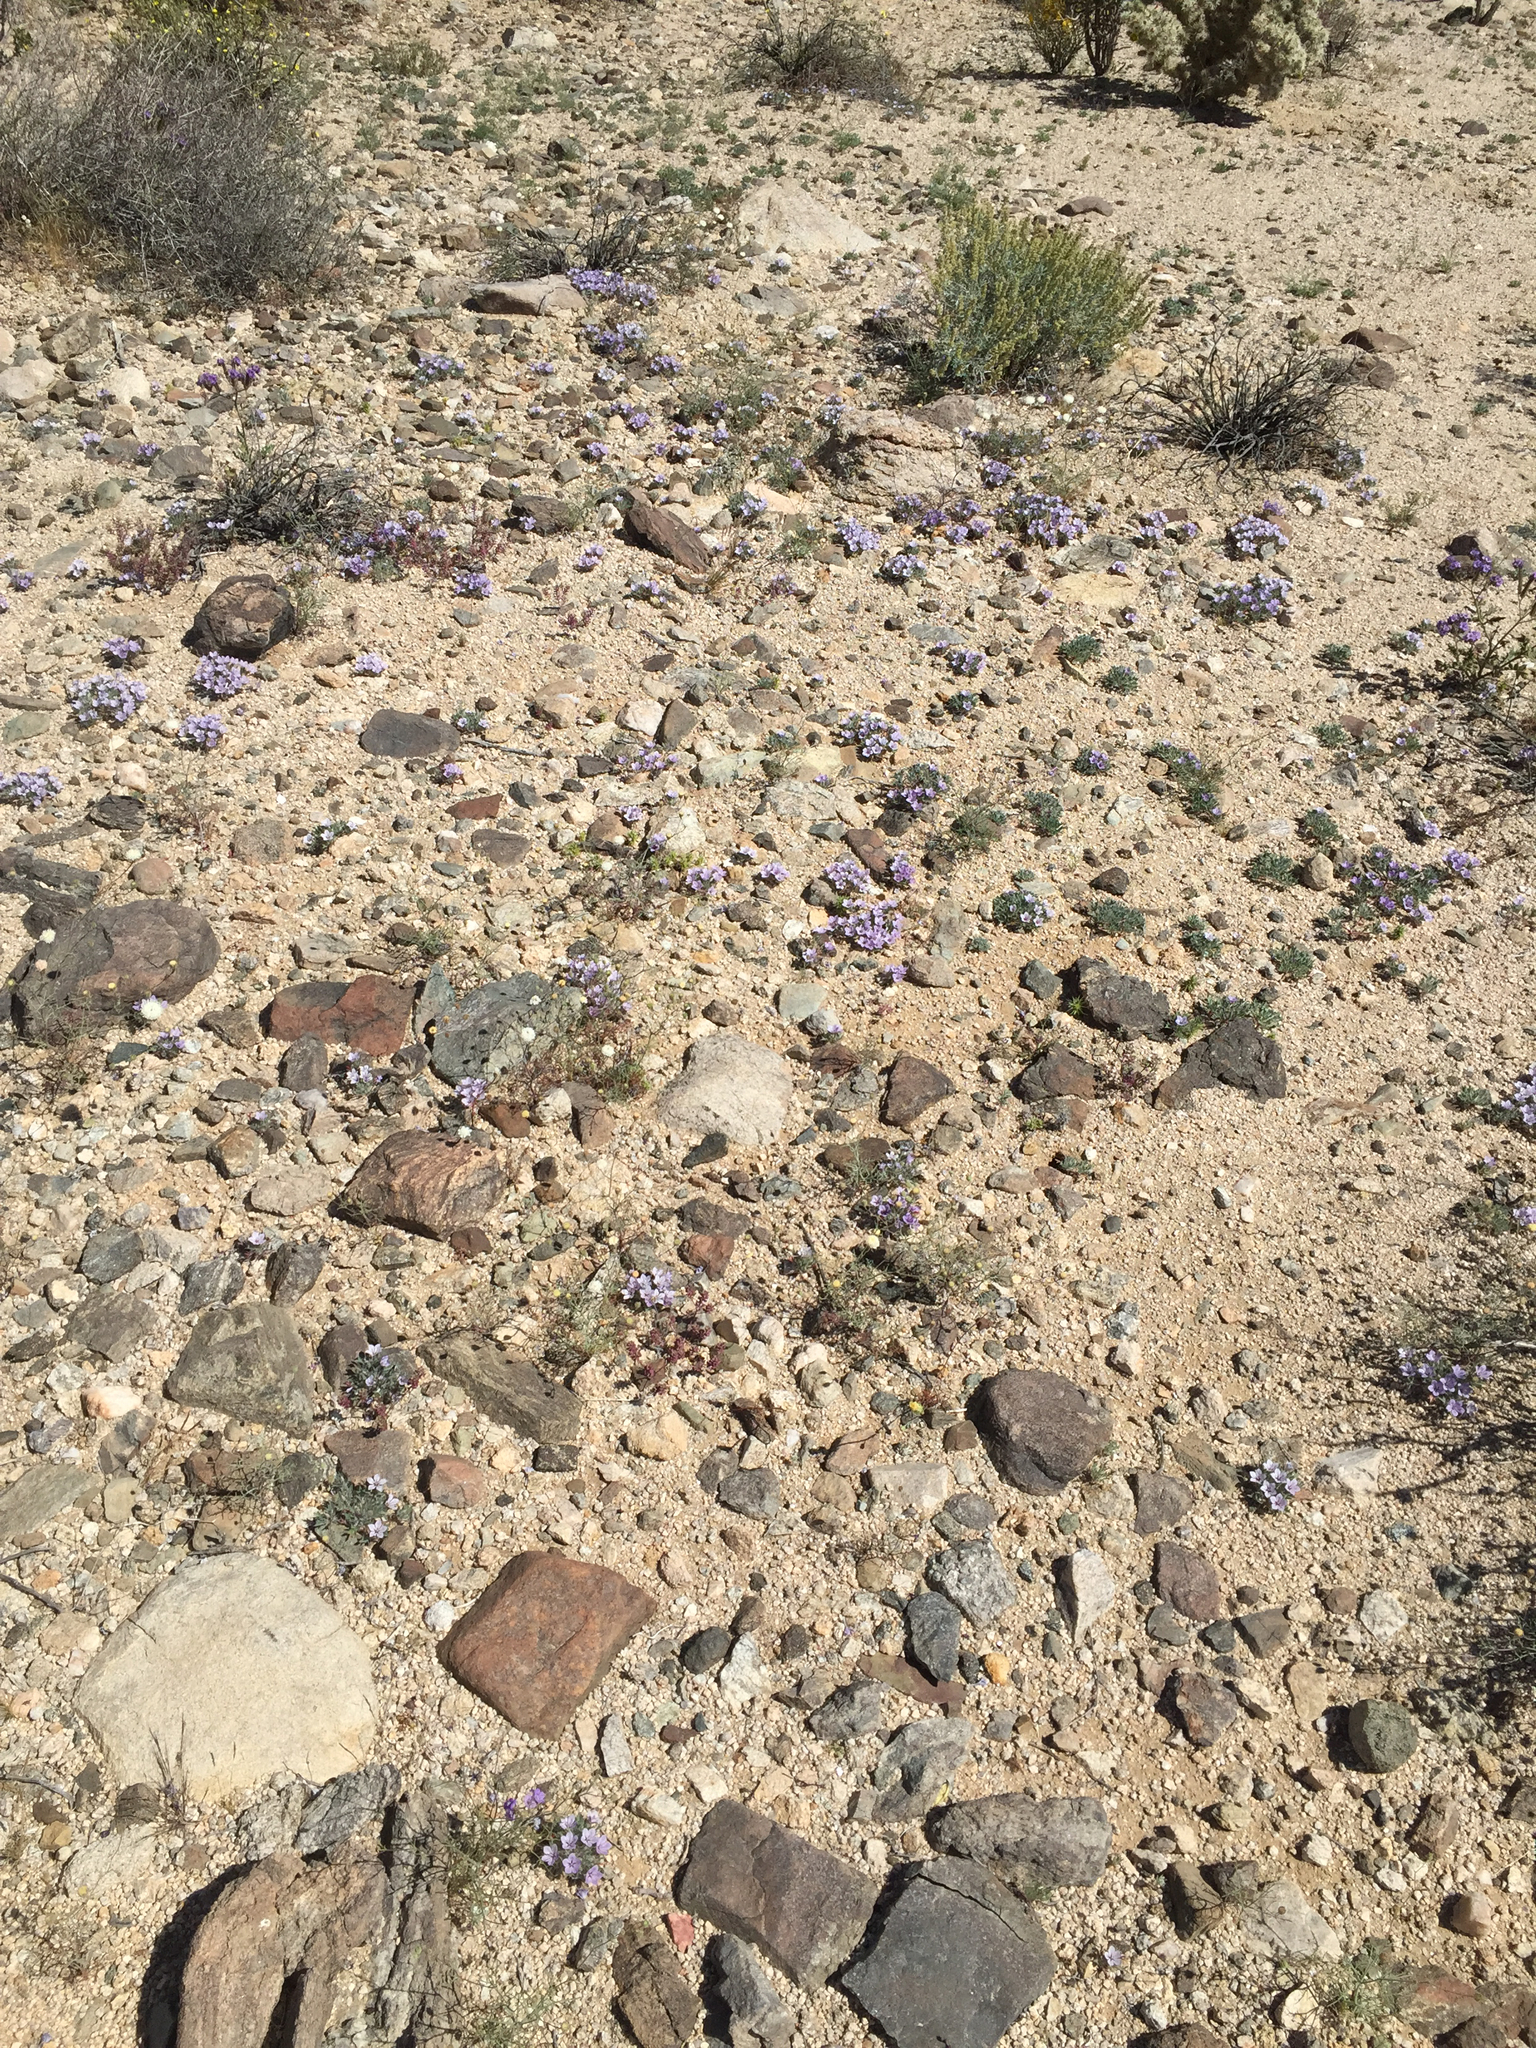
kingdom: Plantae
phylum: Tracheophyta
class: Magnoliopsida
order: Ericales
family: Polemoniaceae
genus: Langloisia
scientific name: Langloisia setosissima
